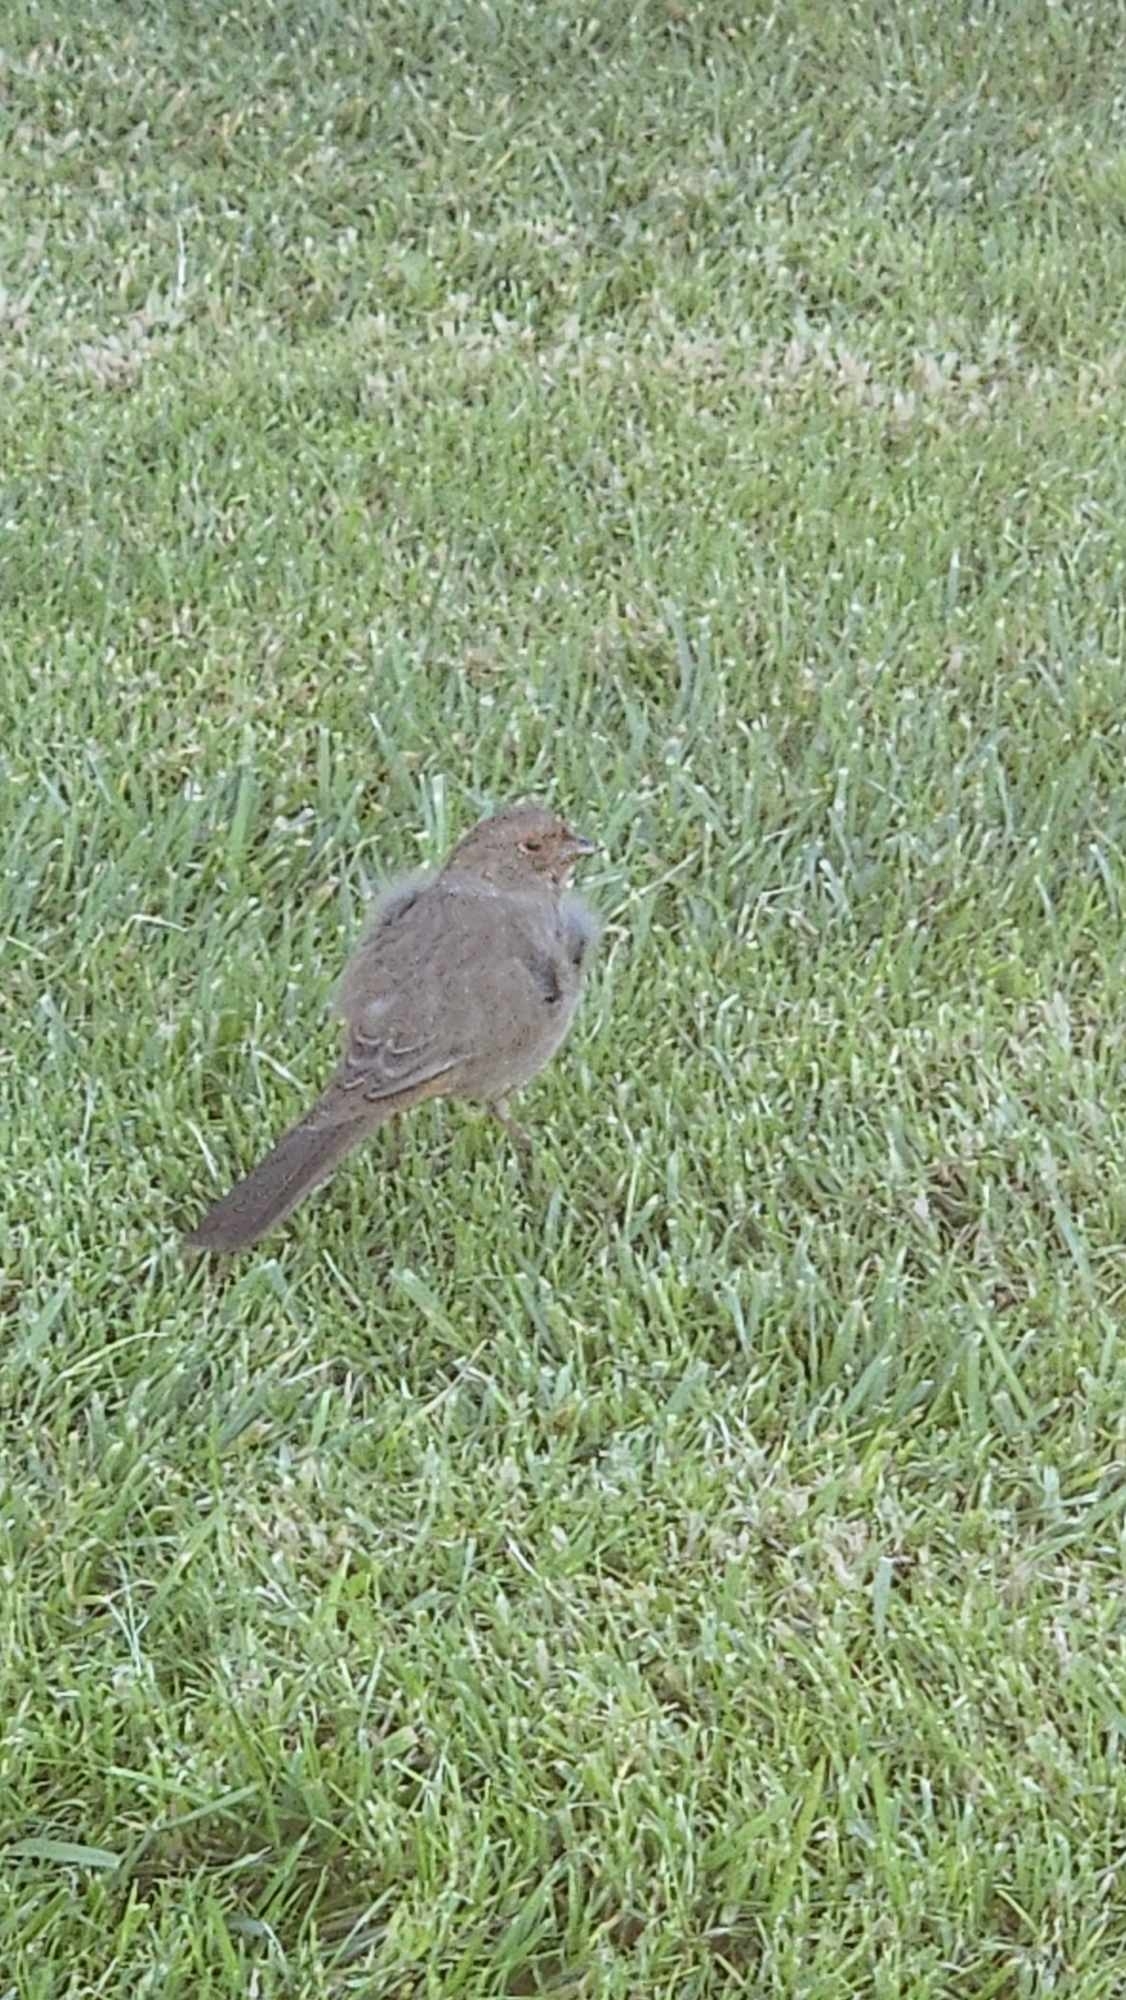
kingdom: Animalia
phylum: Chordata
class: Aves
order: Passeriformes
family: Passerellidae
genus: Melozone
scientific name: Melozone crissalis
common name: California towhee
